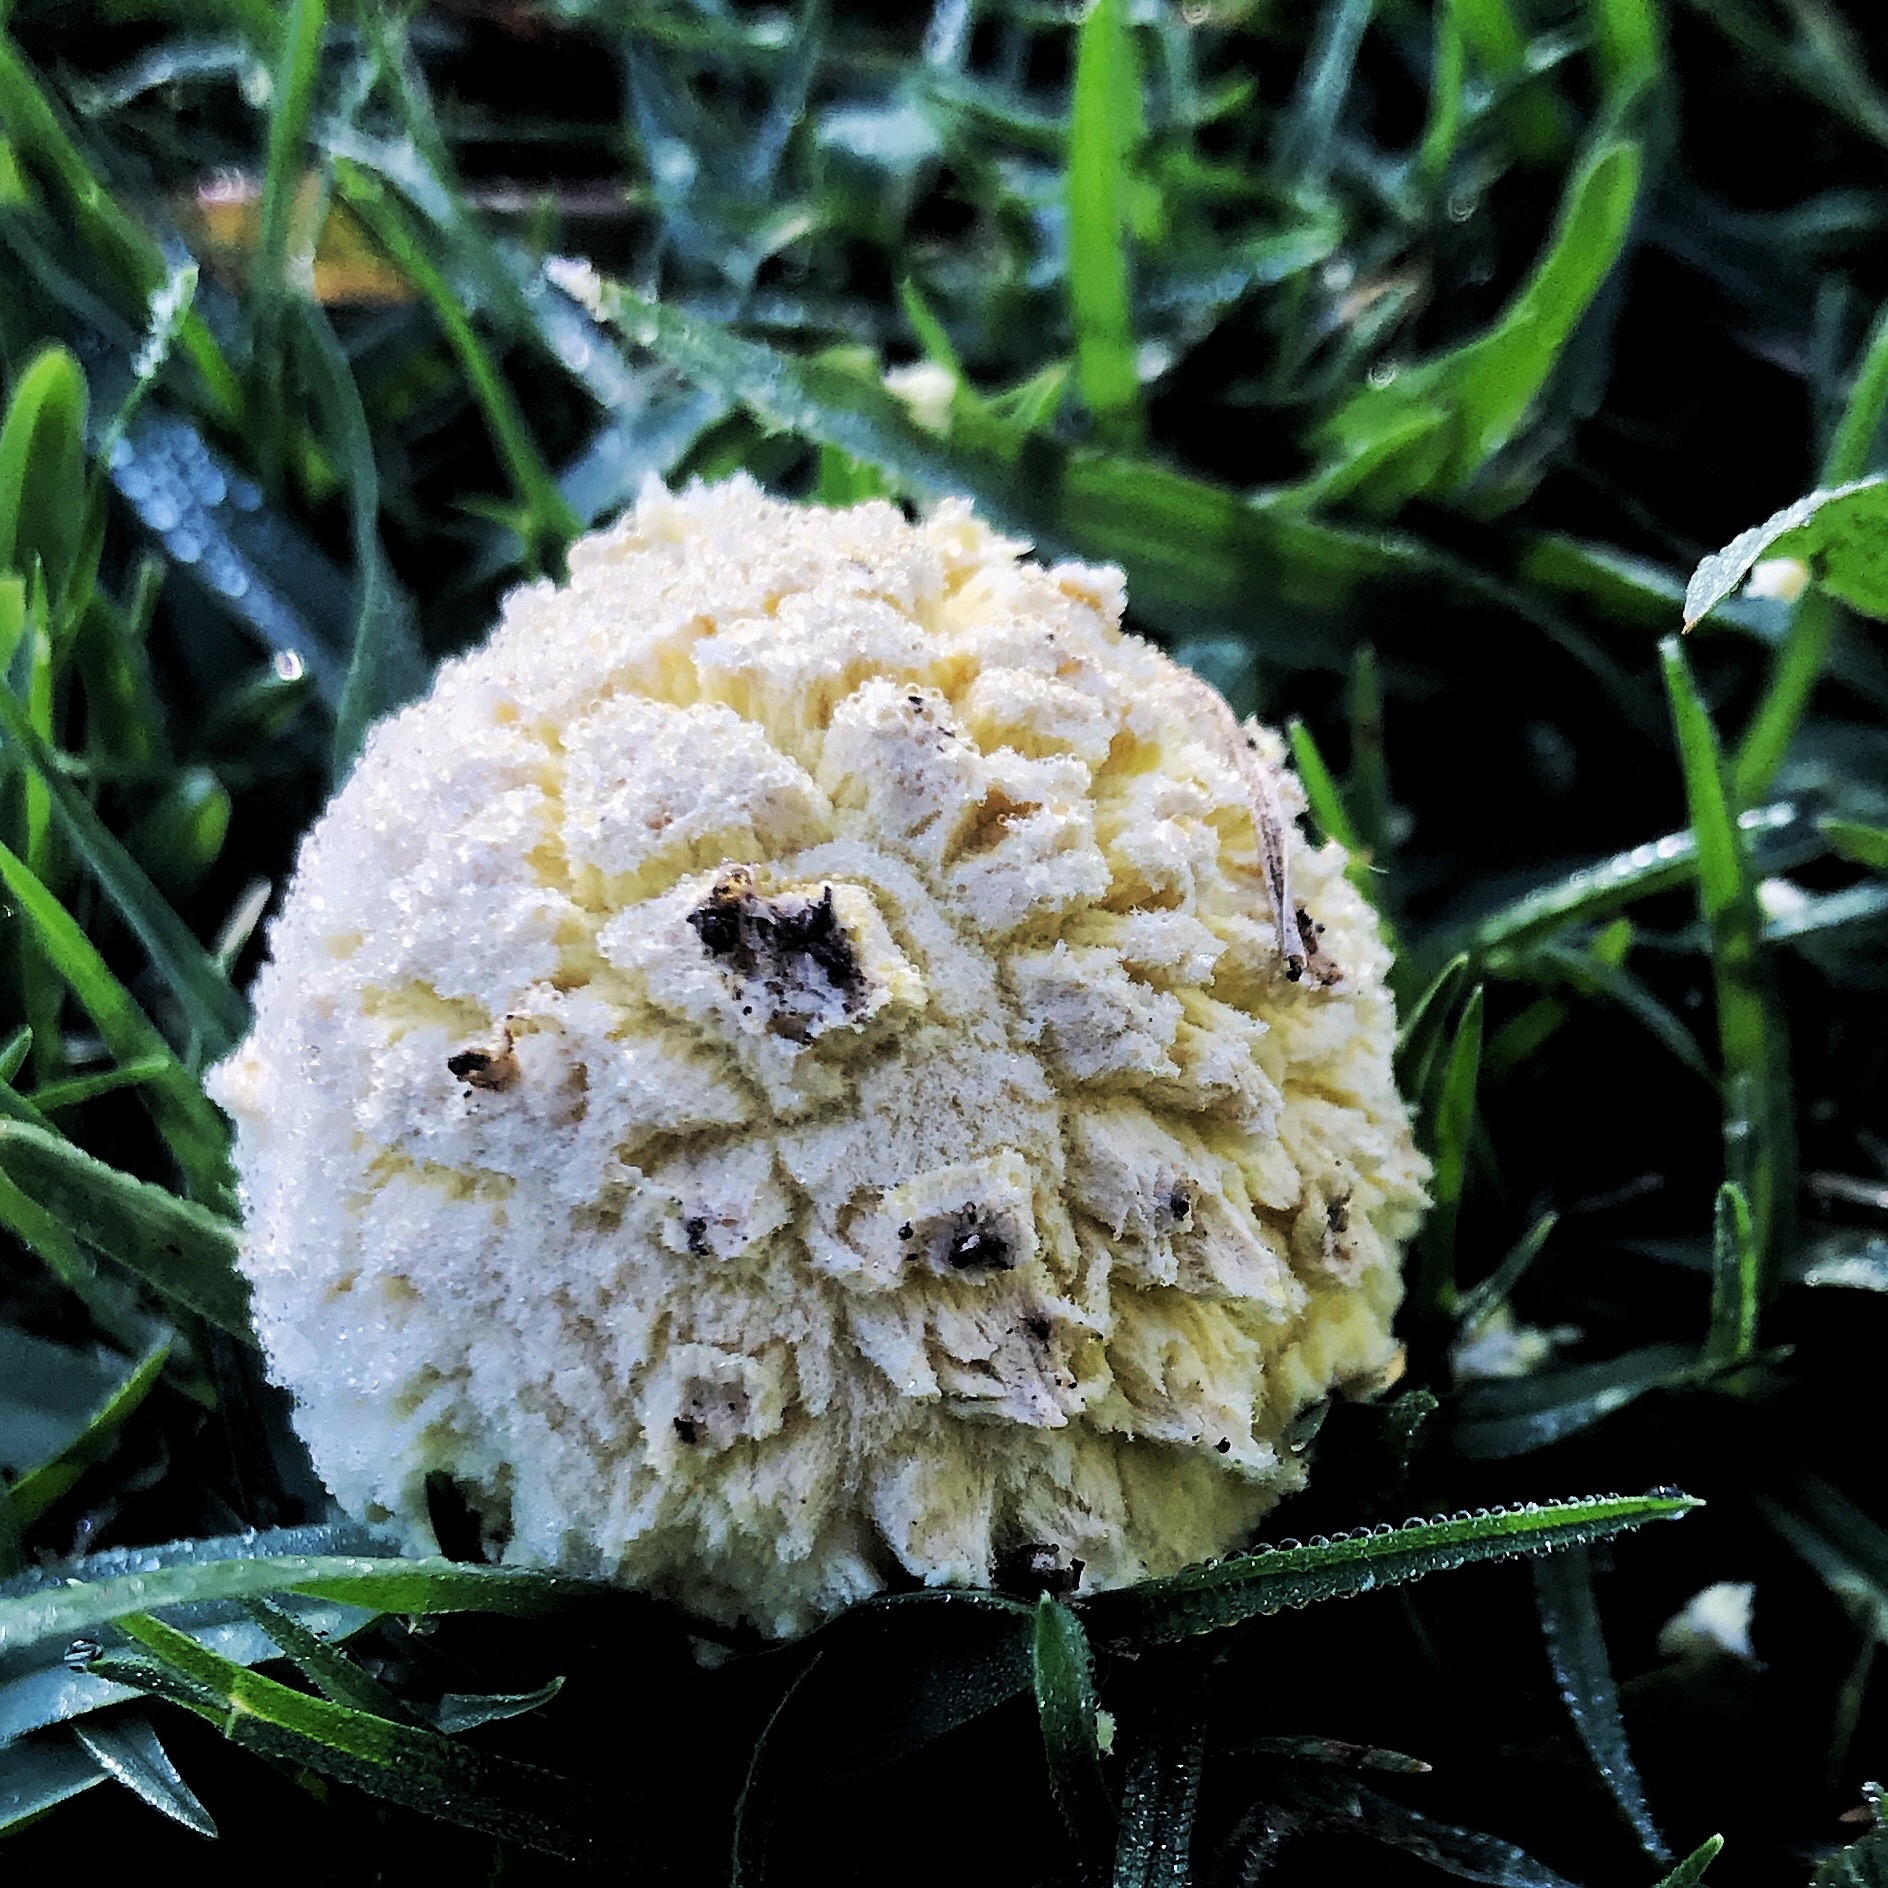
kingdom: Fungi
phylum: Basidiomycota
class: Agaricomycetes
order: Agaricales
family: Amanitaceae
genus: Aspidella
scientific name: Aspidella aureofloccosa
